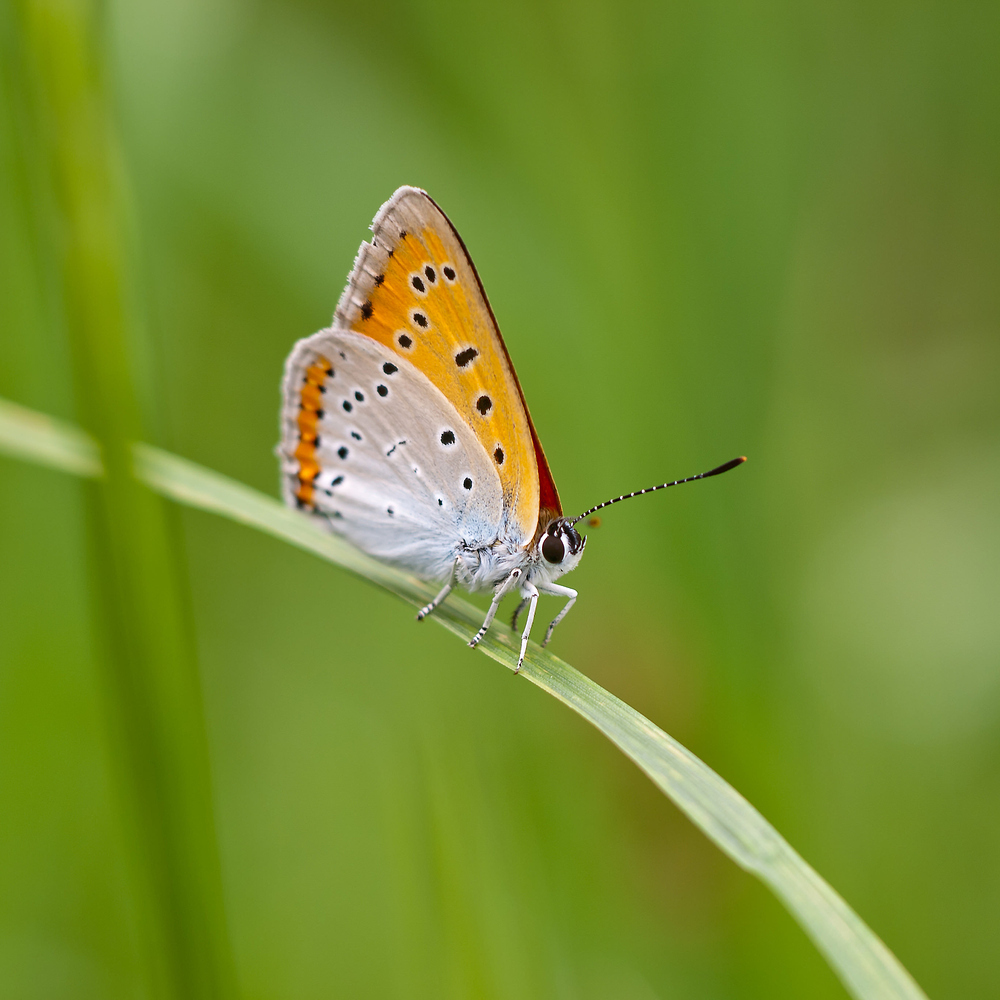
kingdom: Animalia
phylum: Arthropoda
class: Insecta
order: Lepidoptera
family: Lycaenidae
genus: Lycaena
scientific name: Lycaena dispar
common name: Large copper
